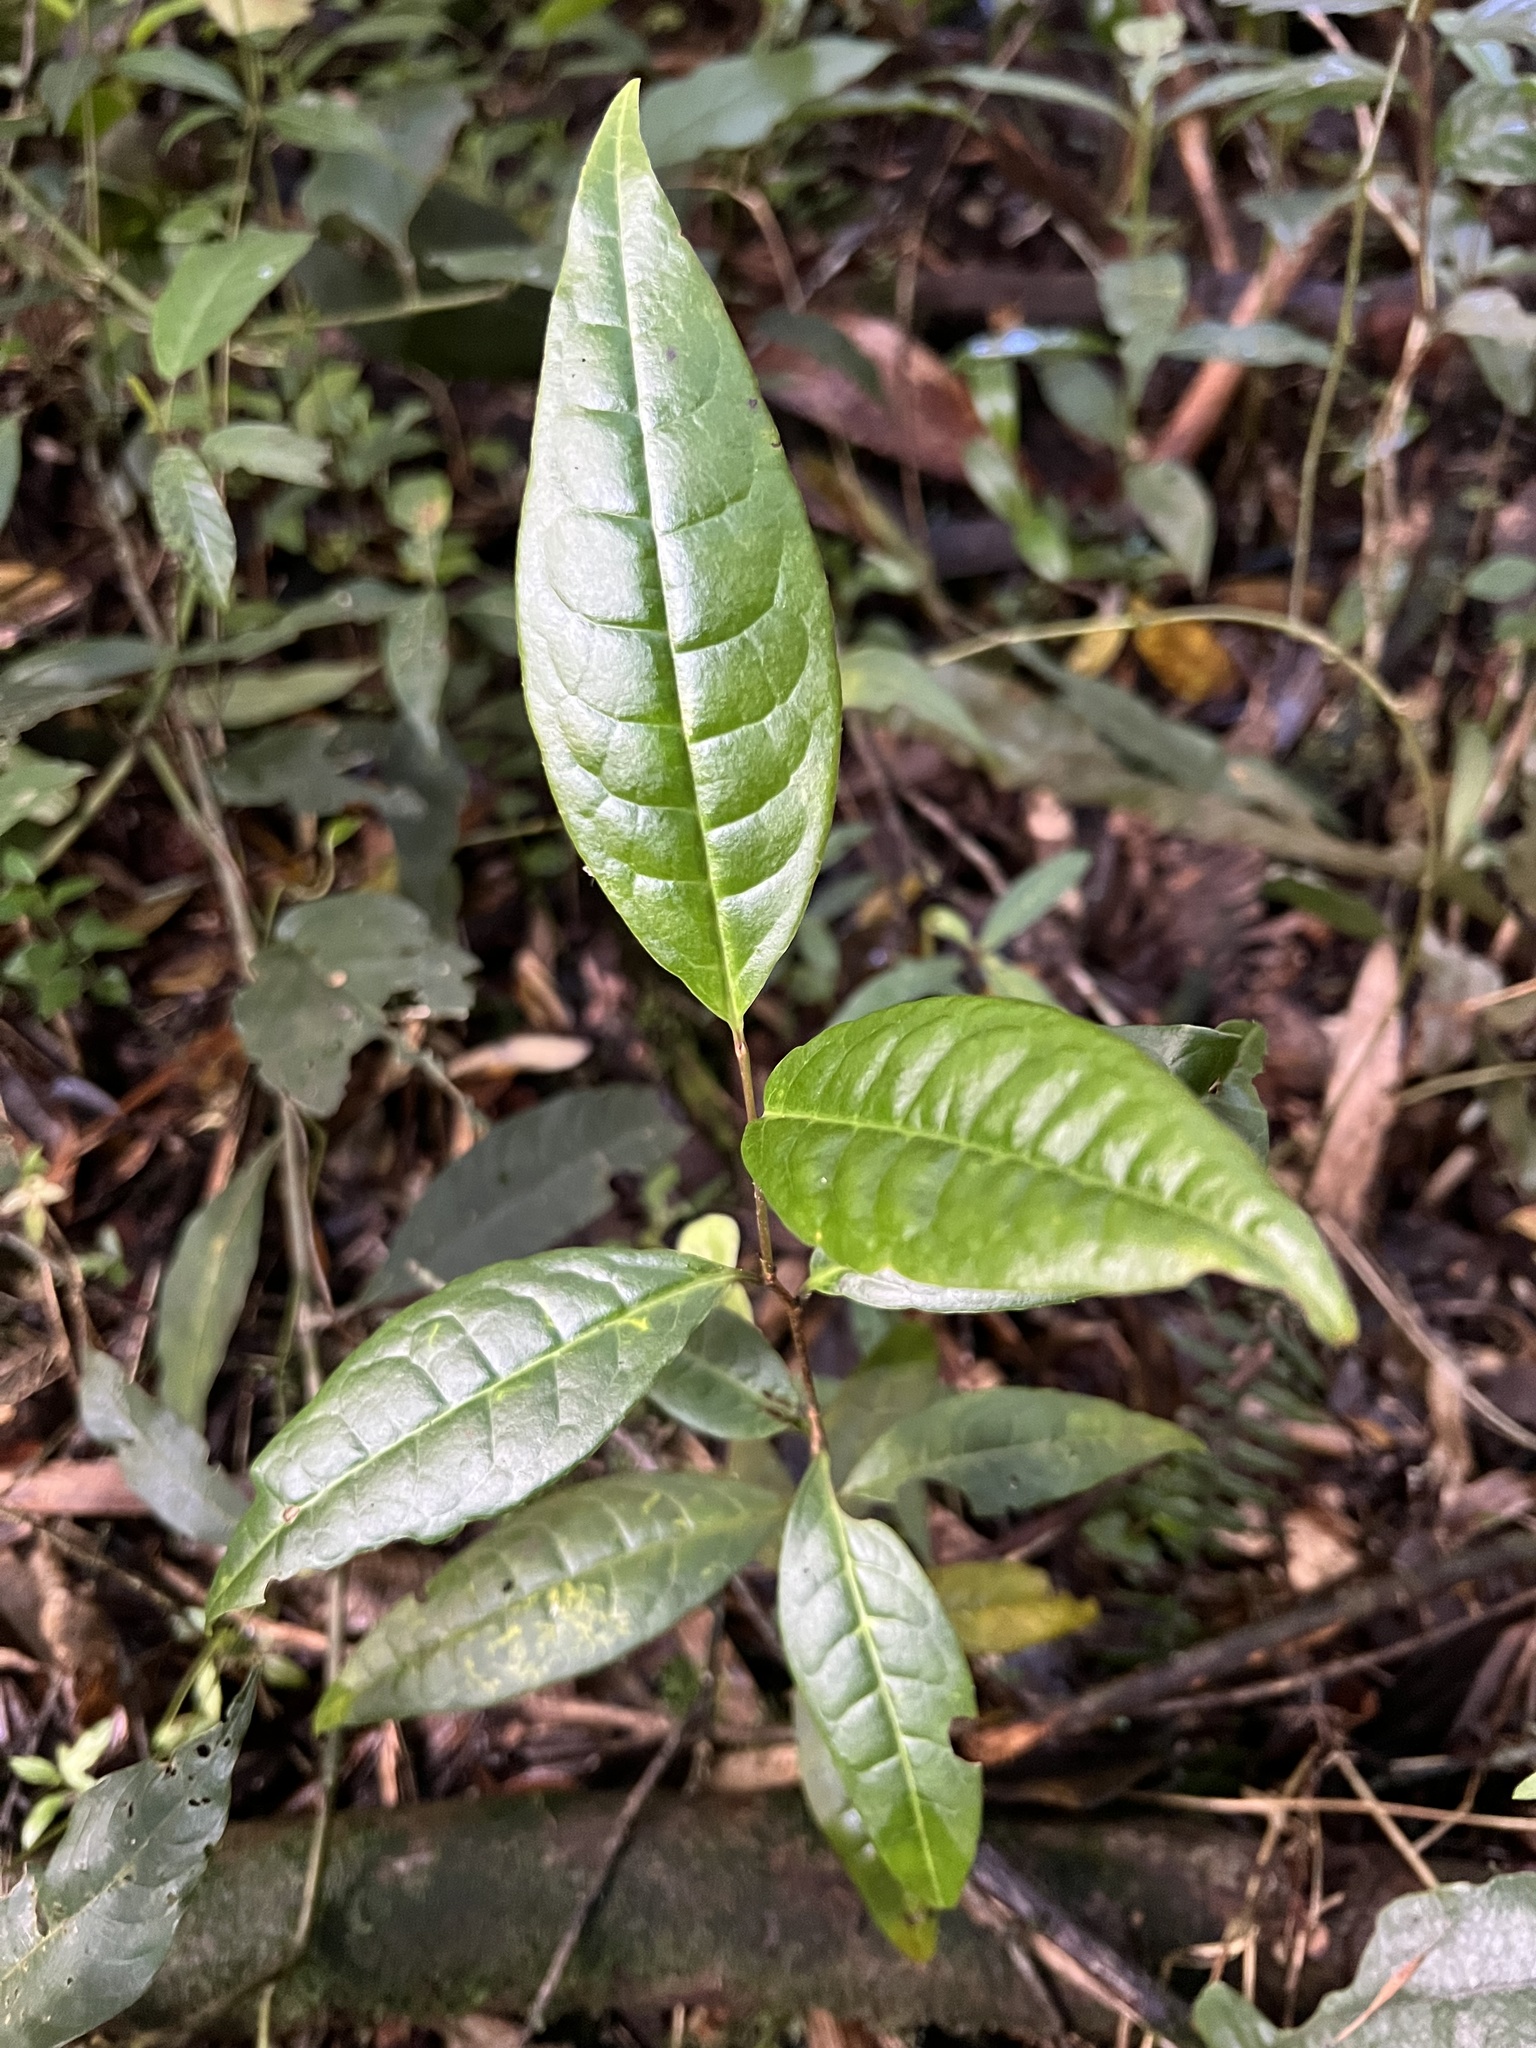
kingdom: Plantae
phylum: Tracheophyta
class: Magnoliopsida
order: Rosales
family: Rosaceae
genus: Prunus
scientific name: Prunus buxifolia
